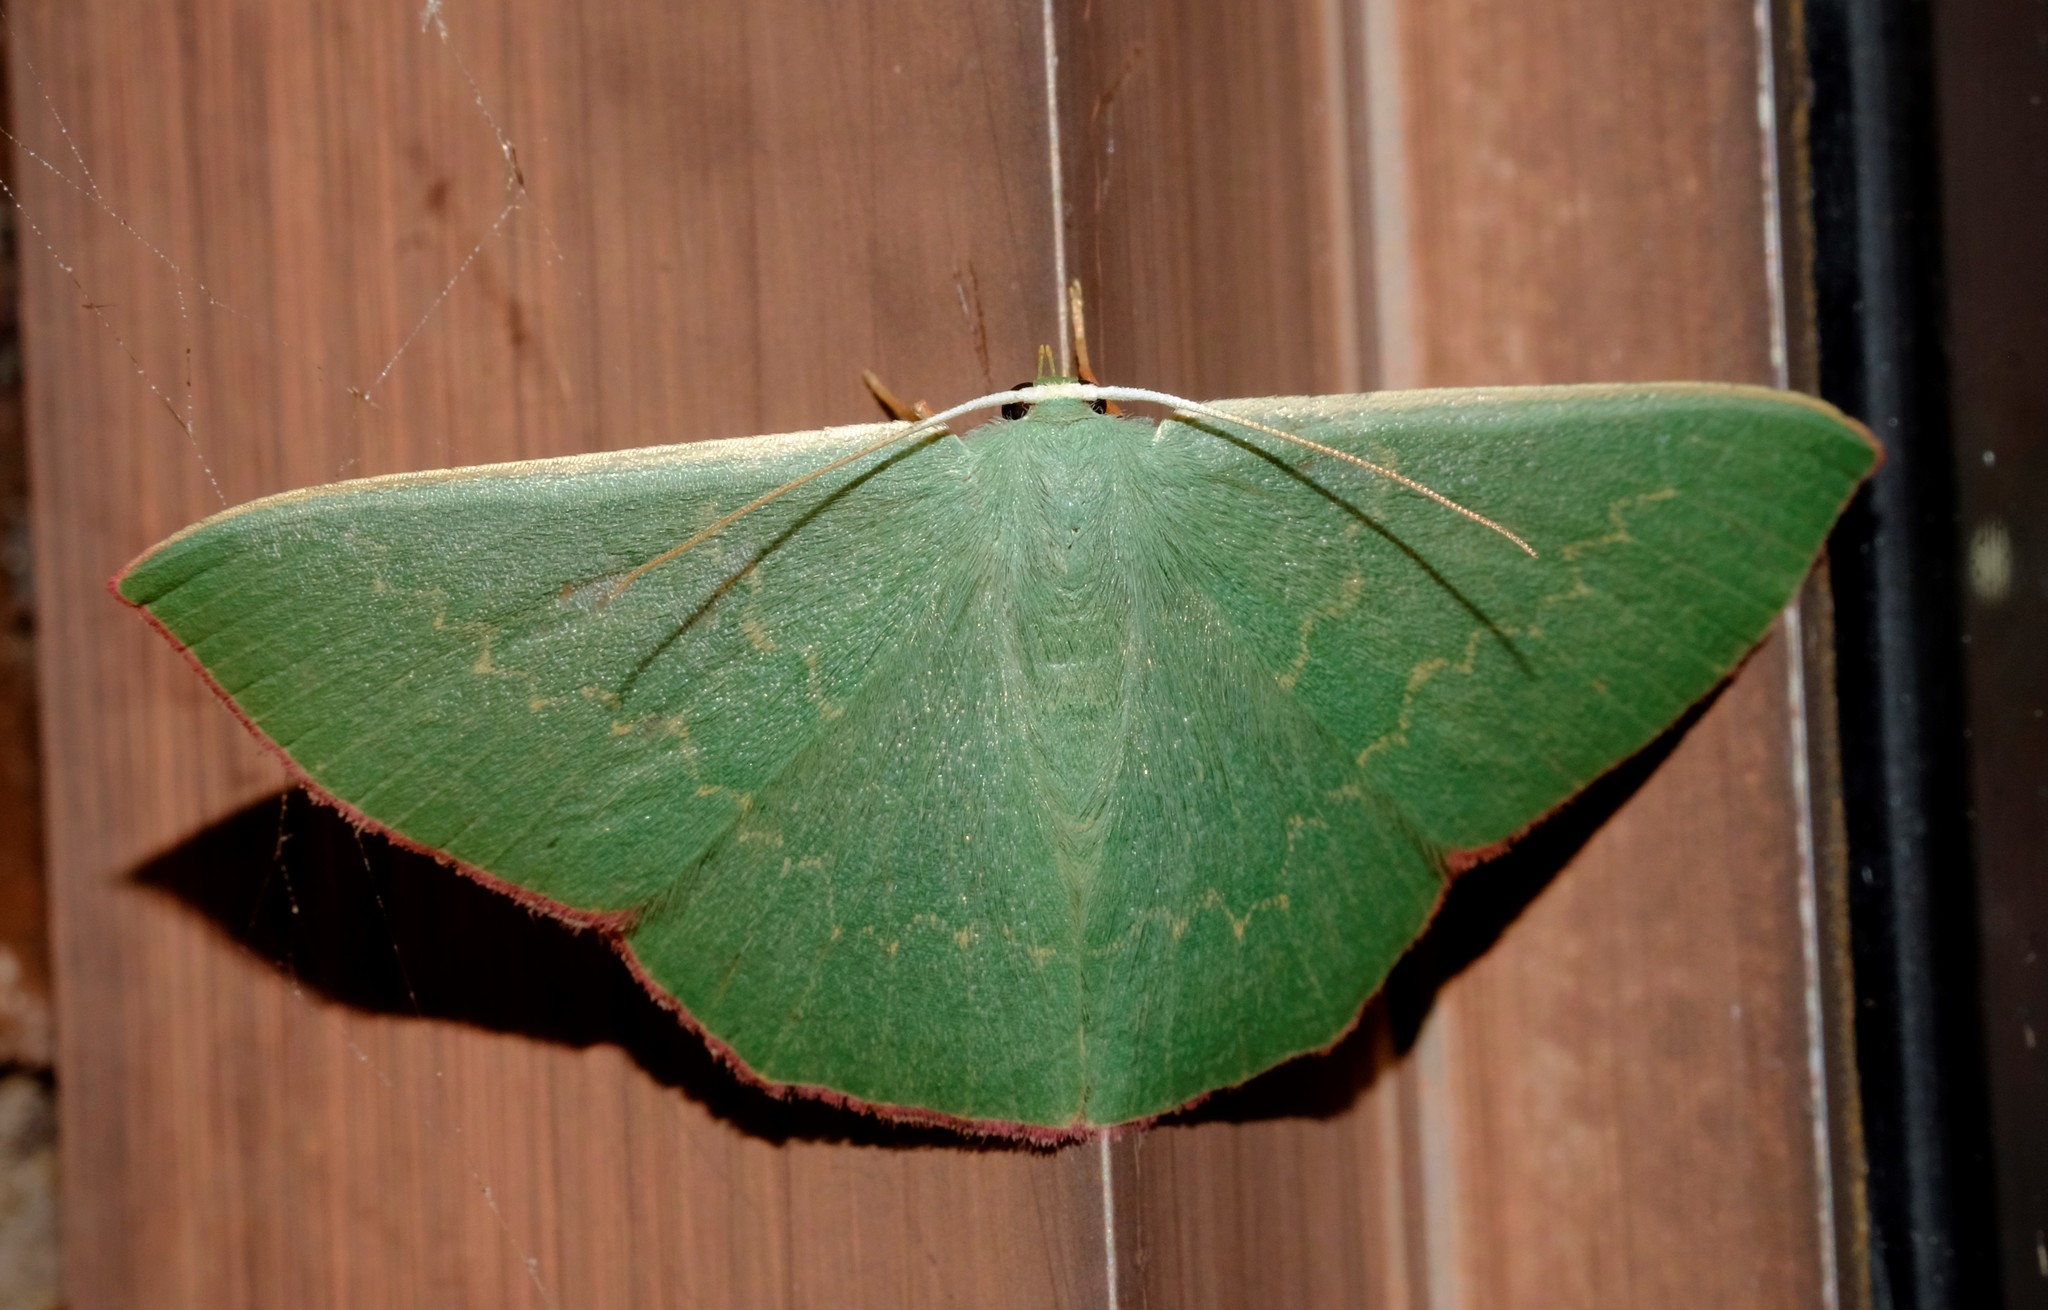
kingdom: Animalia
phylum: Arthropoda
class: Insecta
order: Lepidoptera
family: Geometridae
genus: Prasinocyma
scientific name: Prasinocyma semicrocea
